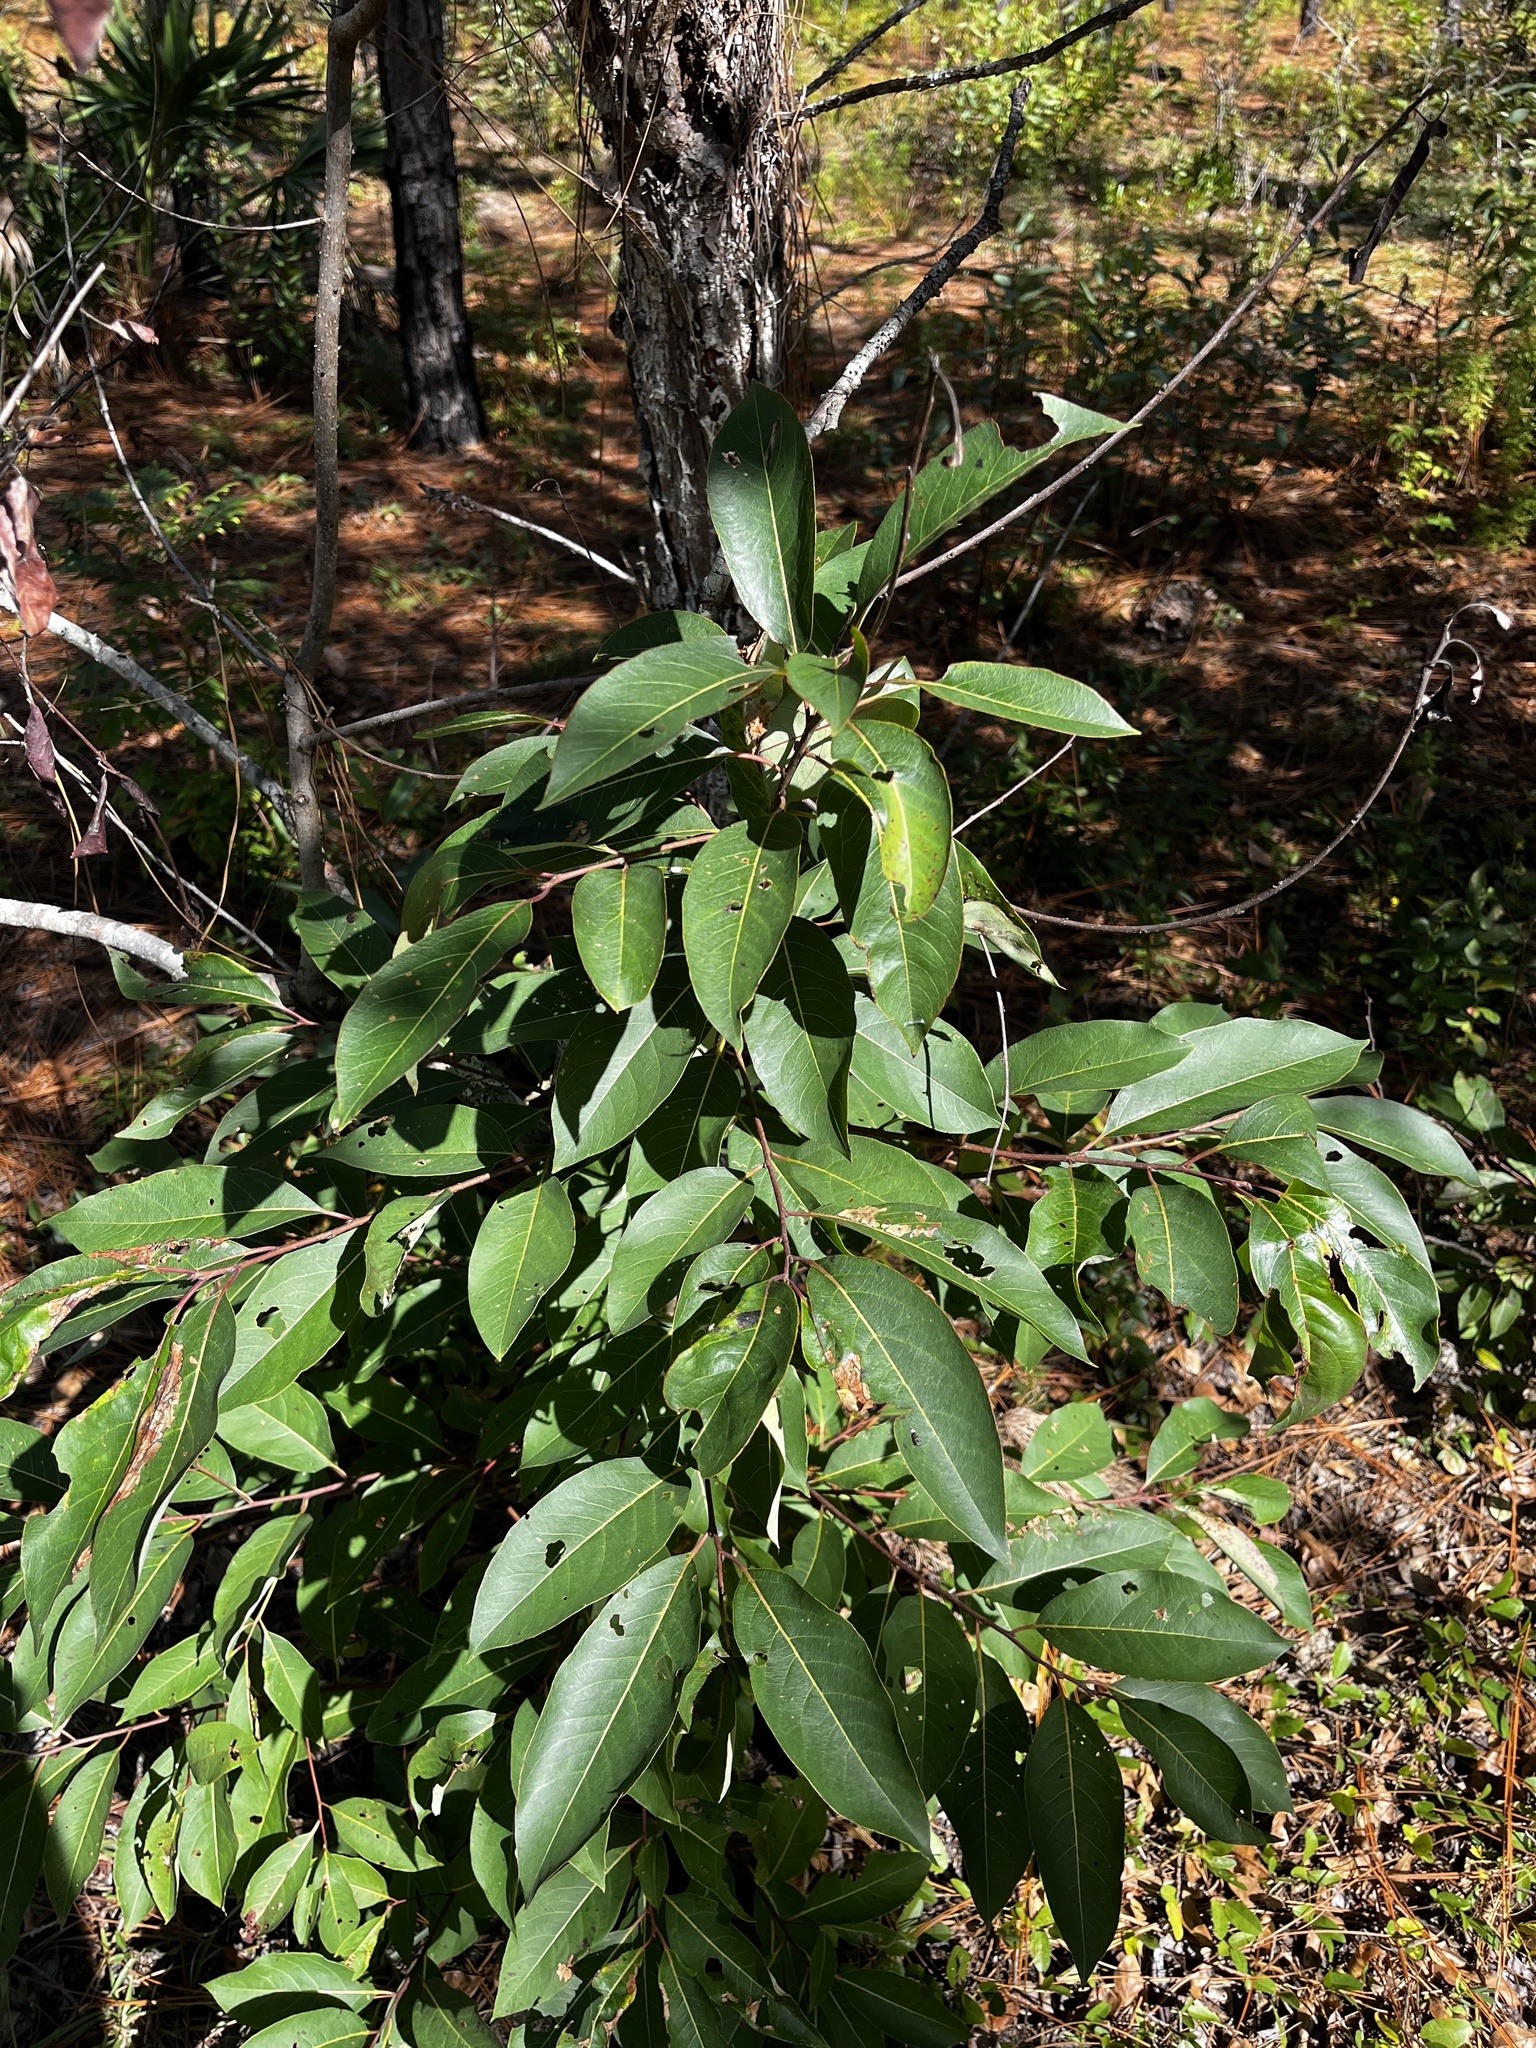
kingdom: Plantae
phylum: Tracheophyta
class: Magnoliopsida
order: Ericales
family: Ebenaceae
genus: Diospyros
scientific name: Diospyros virginiana
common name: Persimmon
